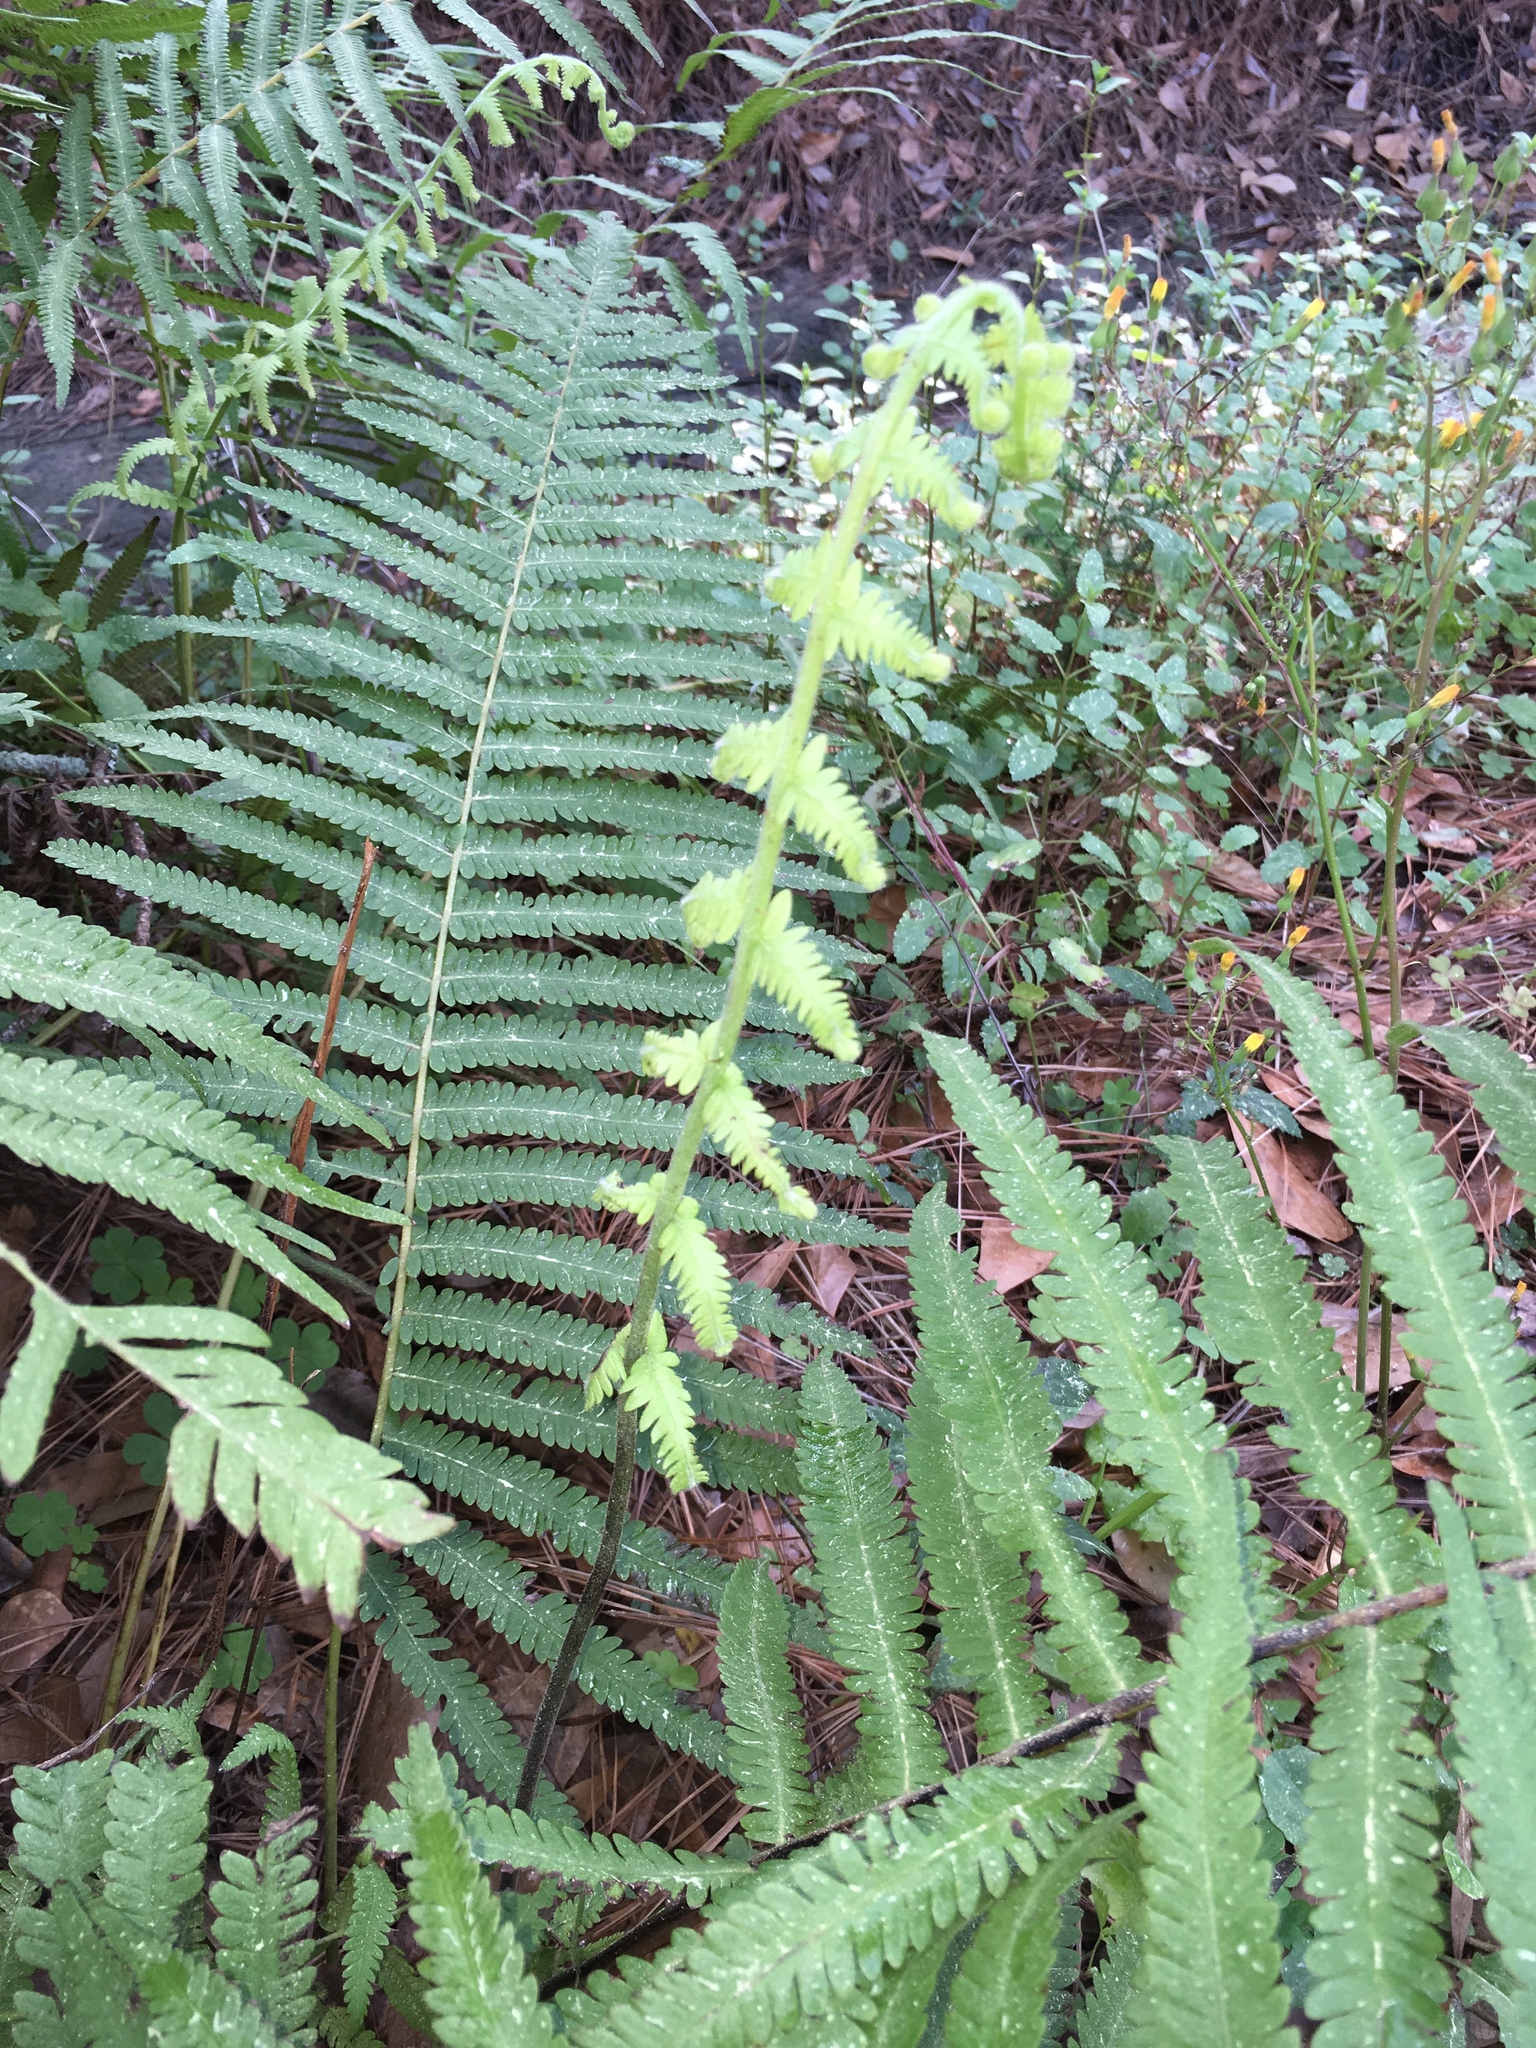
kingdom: Plantae
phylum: Tracheophyta
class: Polypodiopsida
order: Osmundales
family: Osmundaceae
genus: Osmundastrum
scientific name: Osmundastrum cinnamomeum
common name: Cinnamon fern
